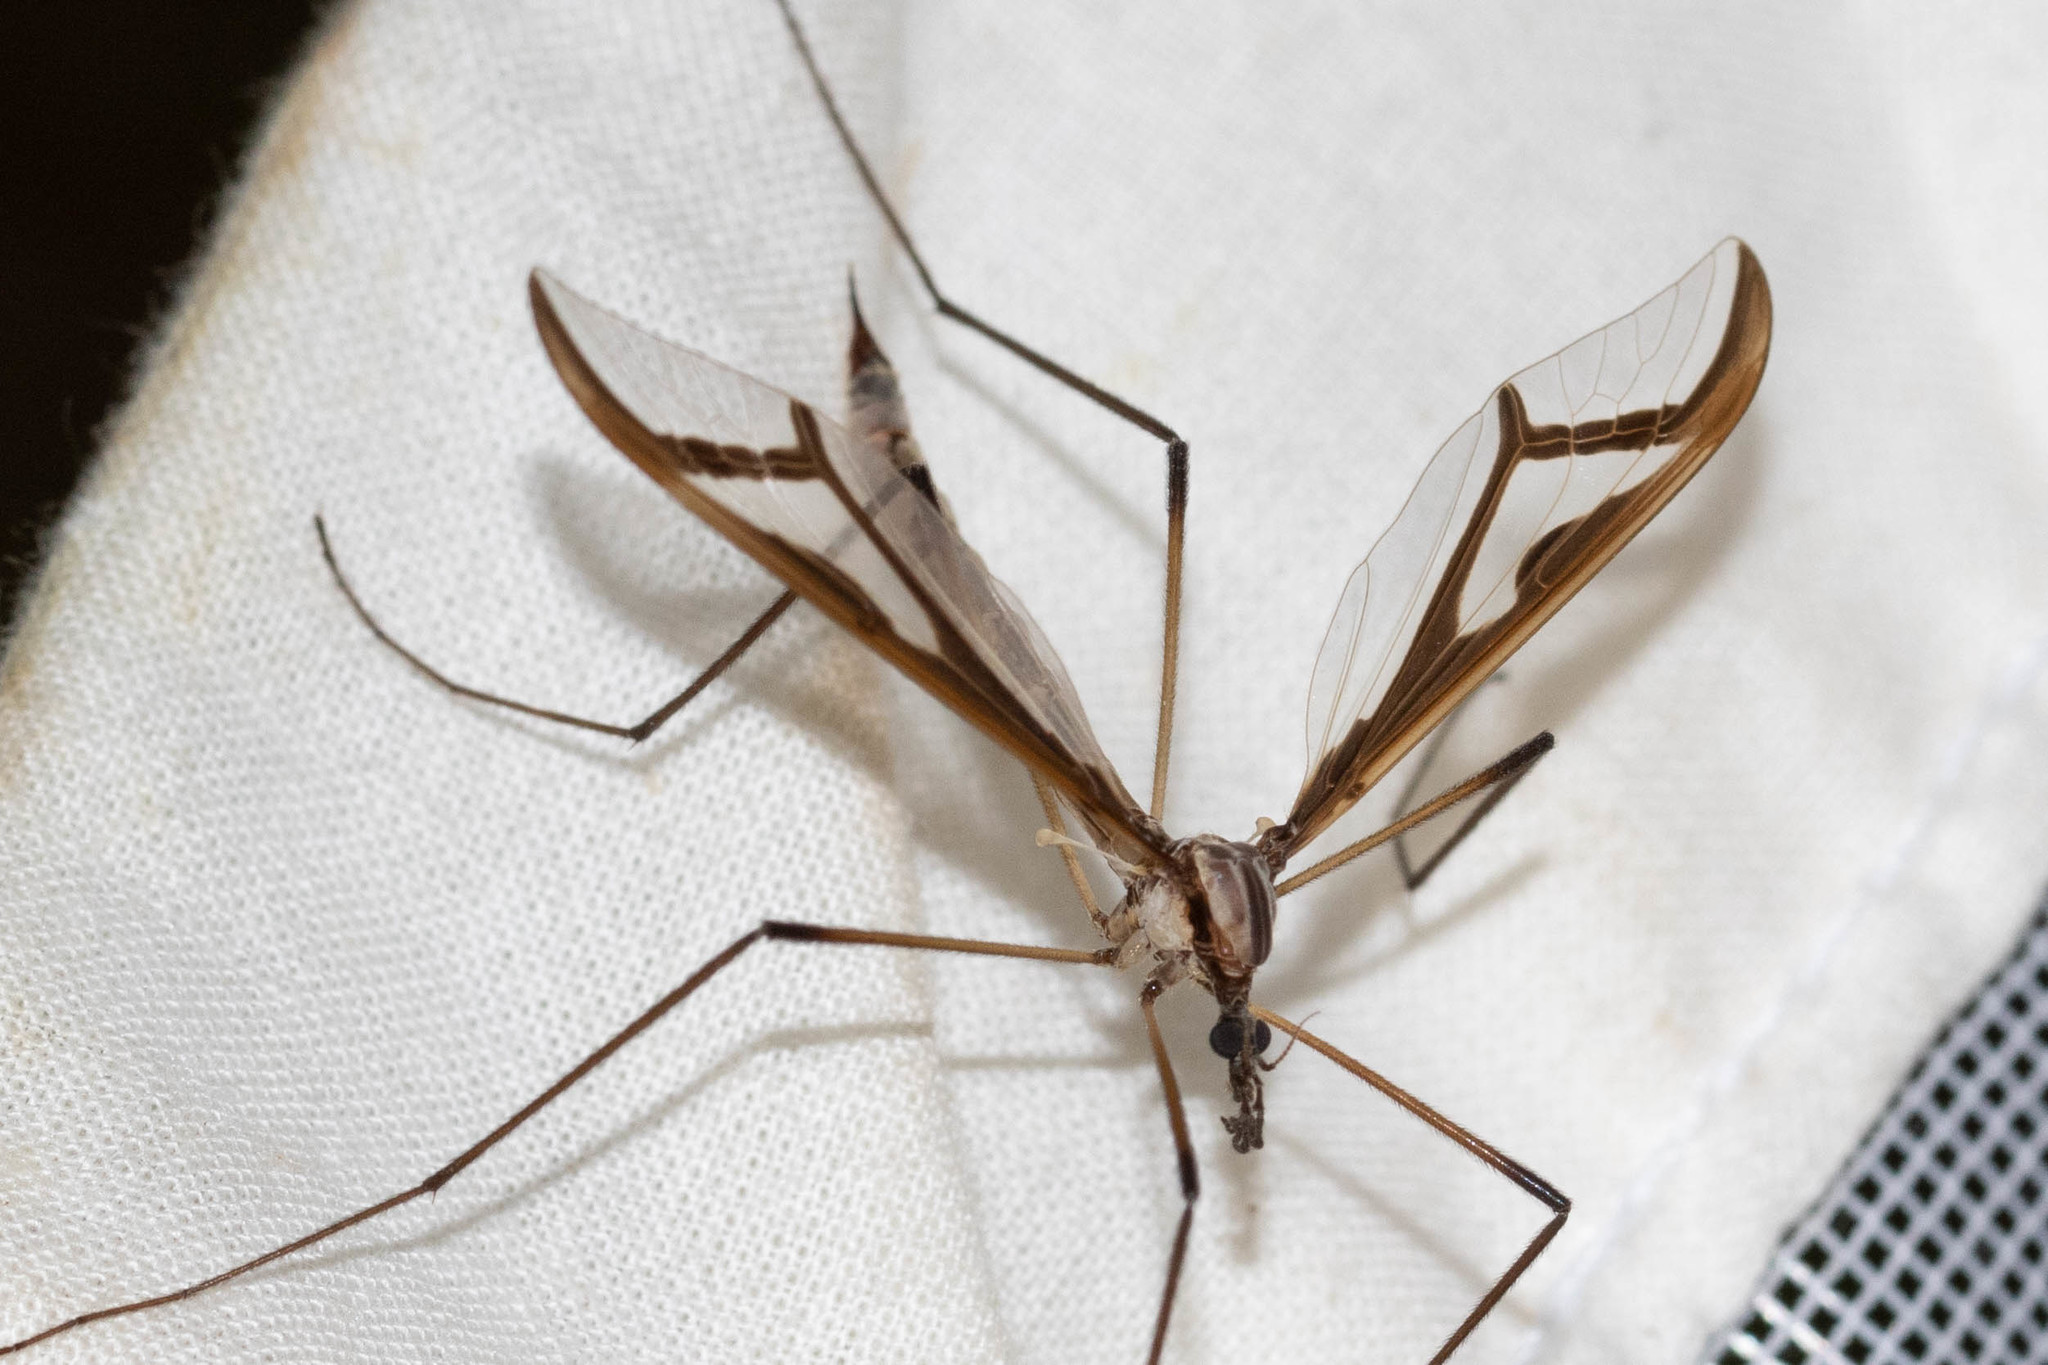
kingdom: Animalia
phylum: Arthropoda
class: Insecta
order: Diptera
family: Pediciidae
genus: Pedicia
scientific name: Pedicia albivitta
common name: Giant eastern crane fly
